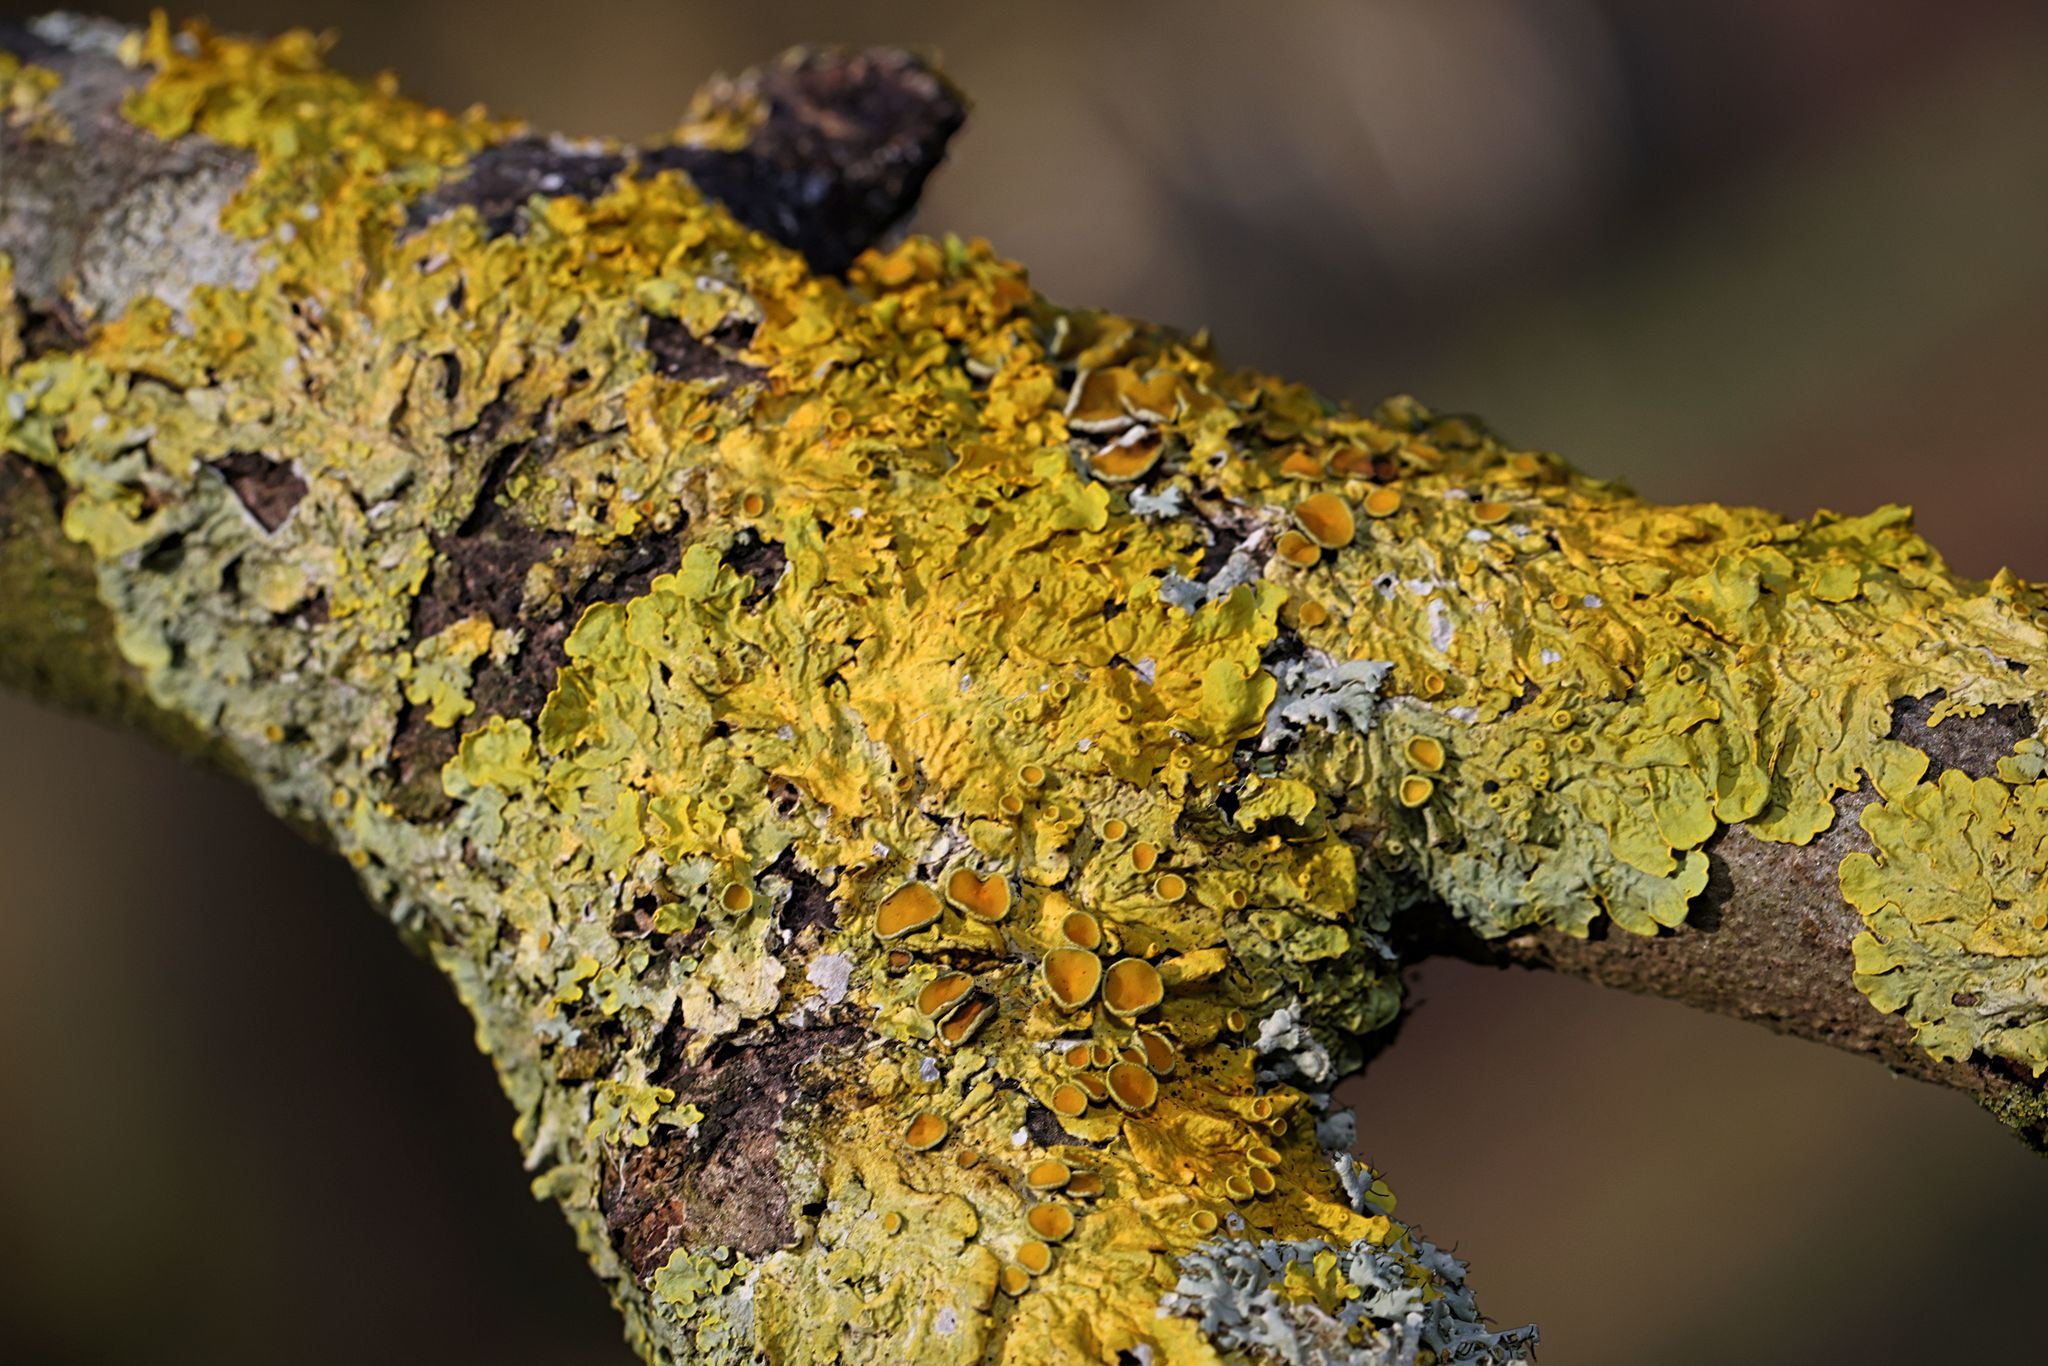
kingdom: Fungi
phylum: Ascomycota
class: Lecanoromycetes
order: Teloschistales
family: Teloschistaceae
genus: Xanthoria
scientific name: Xanthoria parietina
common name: Common orange lichen
